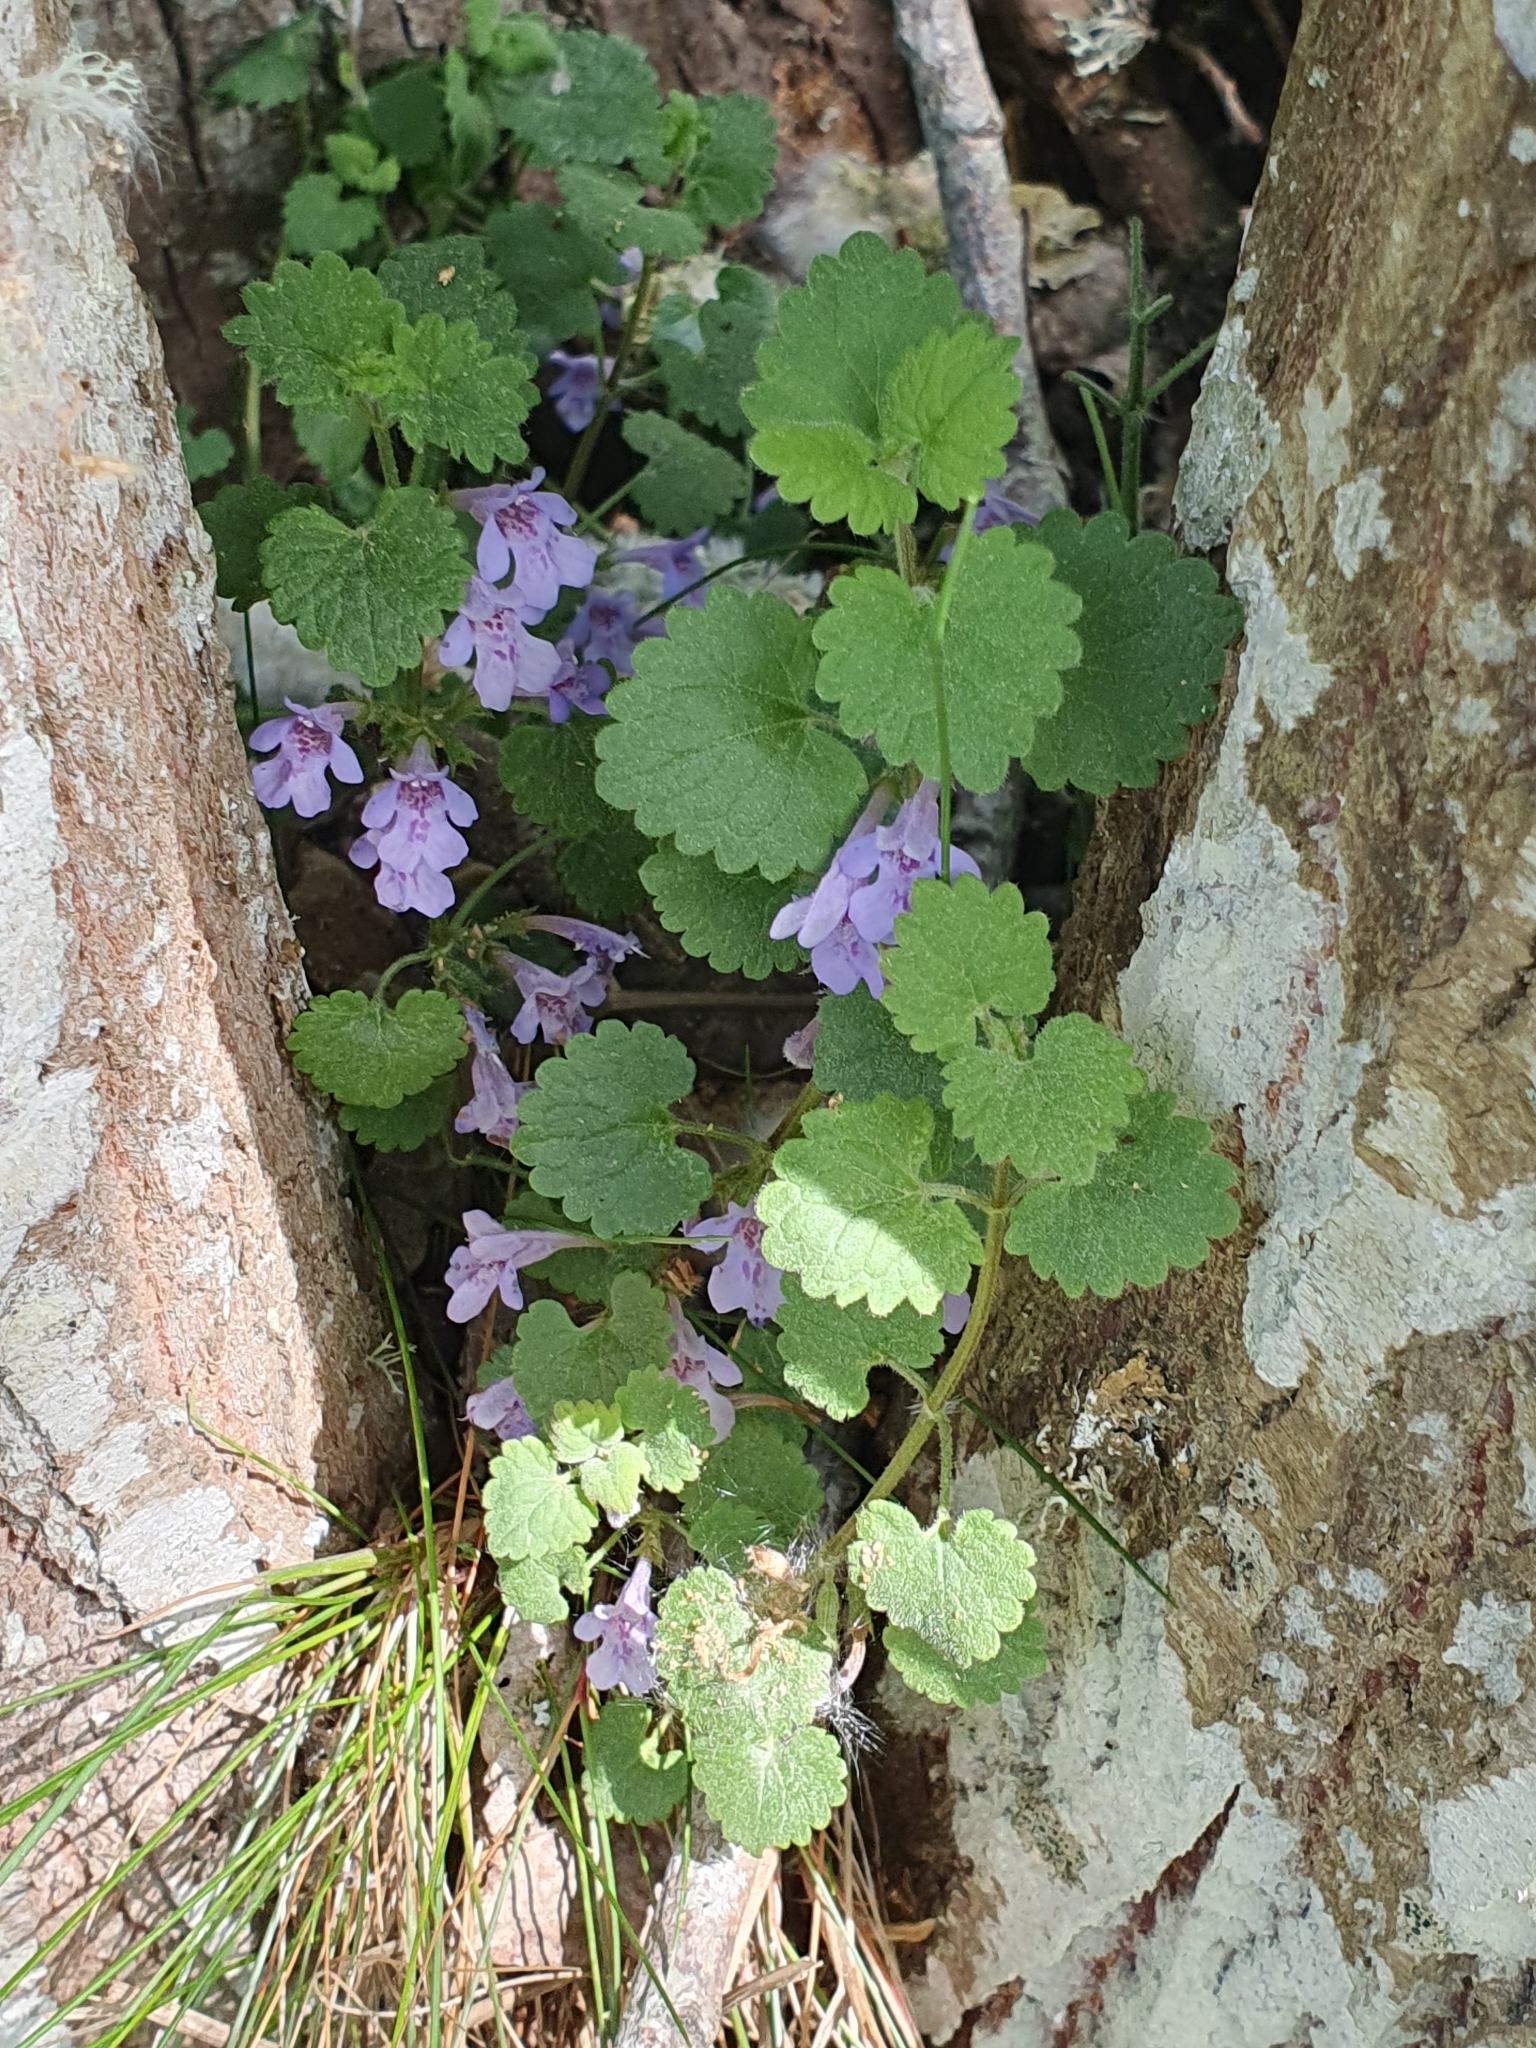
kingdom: Plantae
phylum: Tracheophyta
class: Magnoliopsida
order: Lamiales
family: Lamiaceae
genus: Glechoma
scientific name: Glechoma hederacea
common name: Ground ivy
